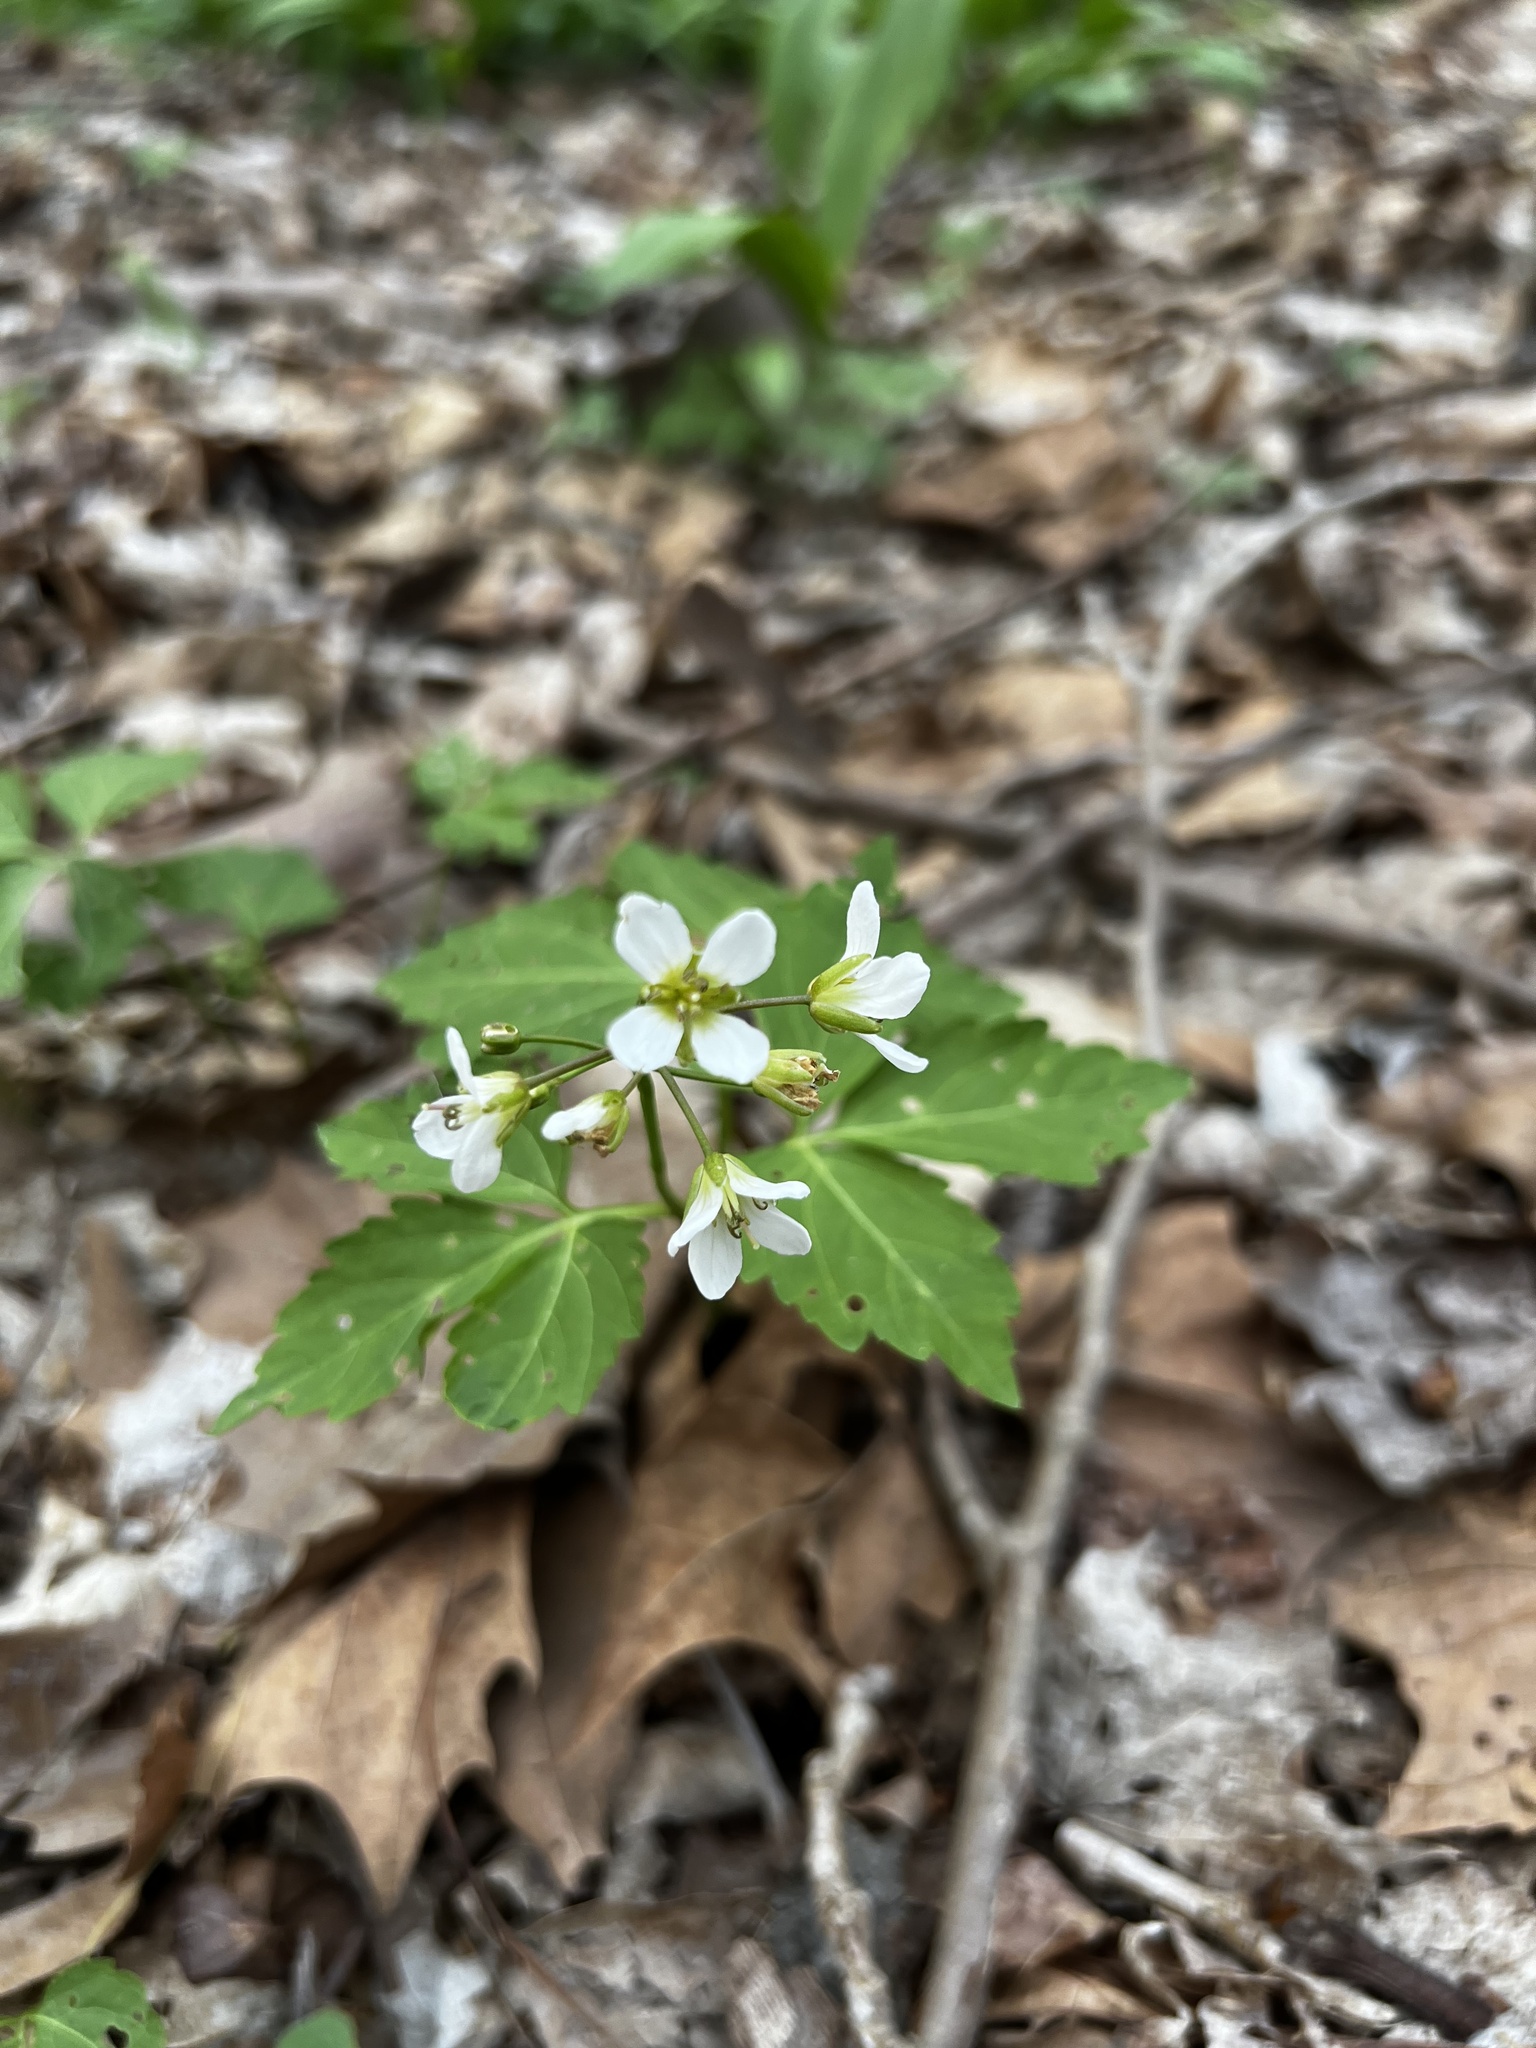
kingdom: Plantae
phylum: Tracheophyta
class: Magnoliopsida
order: Brassicales
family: Brassicaceae
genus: Cardamine
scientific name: Cardamine diphylla
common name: Broad-leaved toothwort
